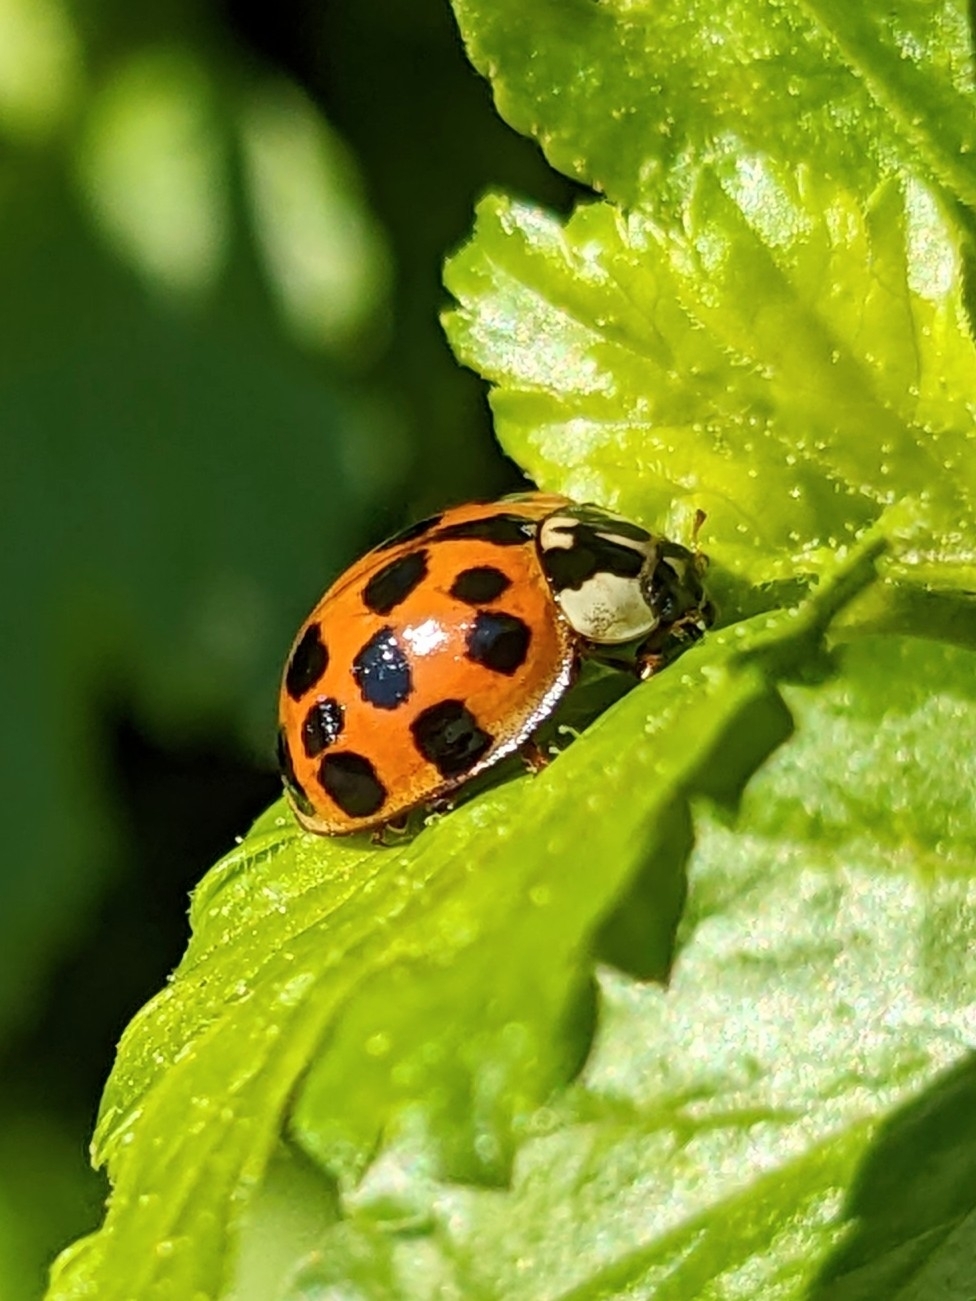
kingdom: Animalia
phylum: Arthropoda
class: Insecta
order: Coleoptera
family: Coccinellidae
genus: Harmonia
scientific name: Harmonia axyridis
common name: Harlequin ladybird
